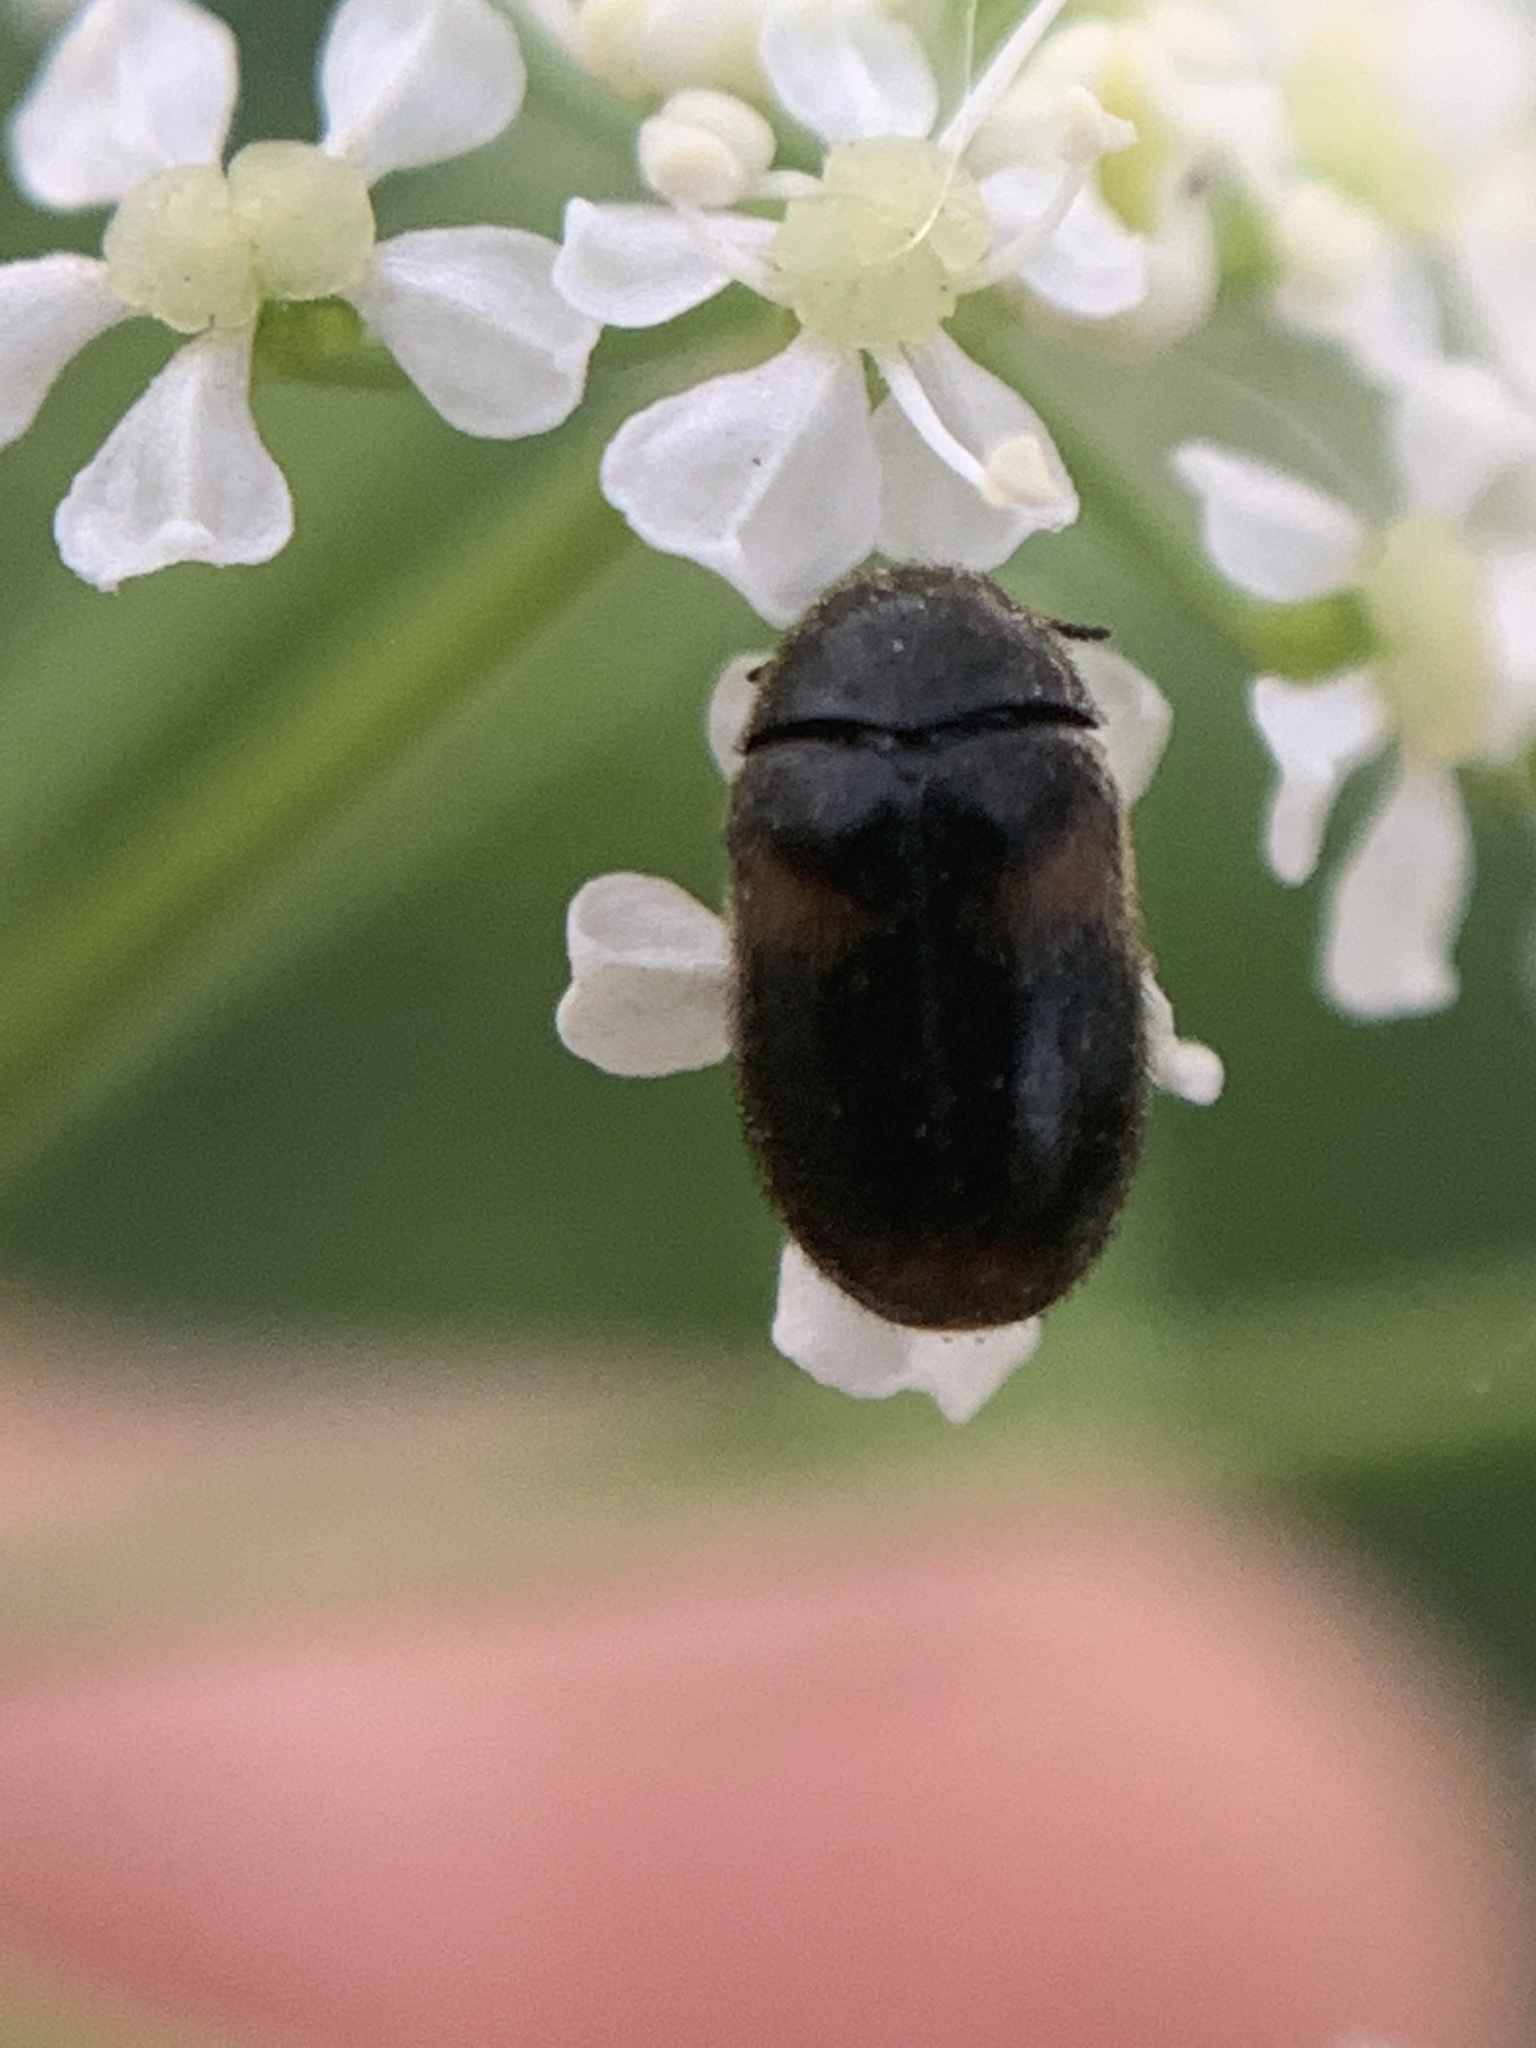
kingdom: Animalia
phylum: Arthropoda
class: Insecta
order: Coleoptera
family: Dermestidae
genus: Trogoderma
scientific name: Trogoderma
